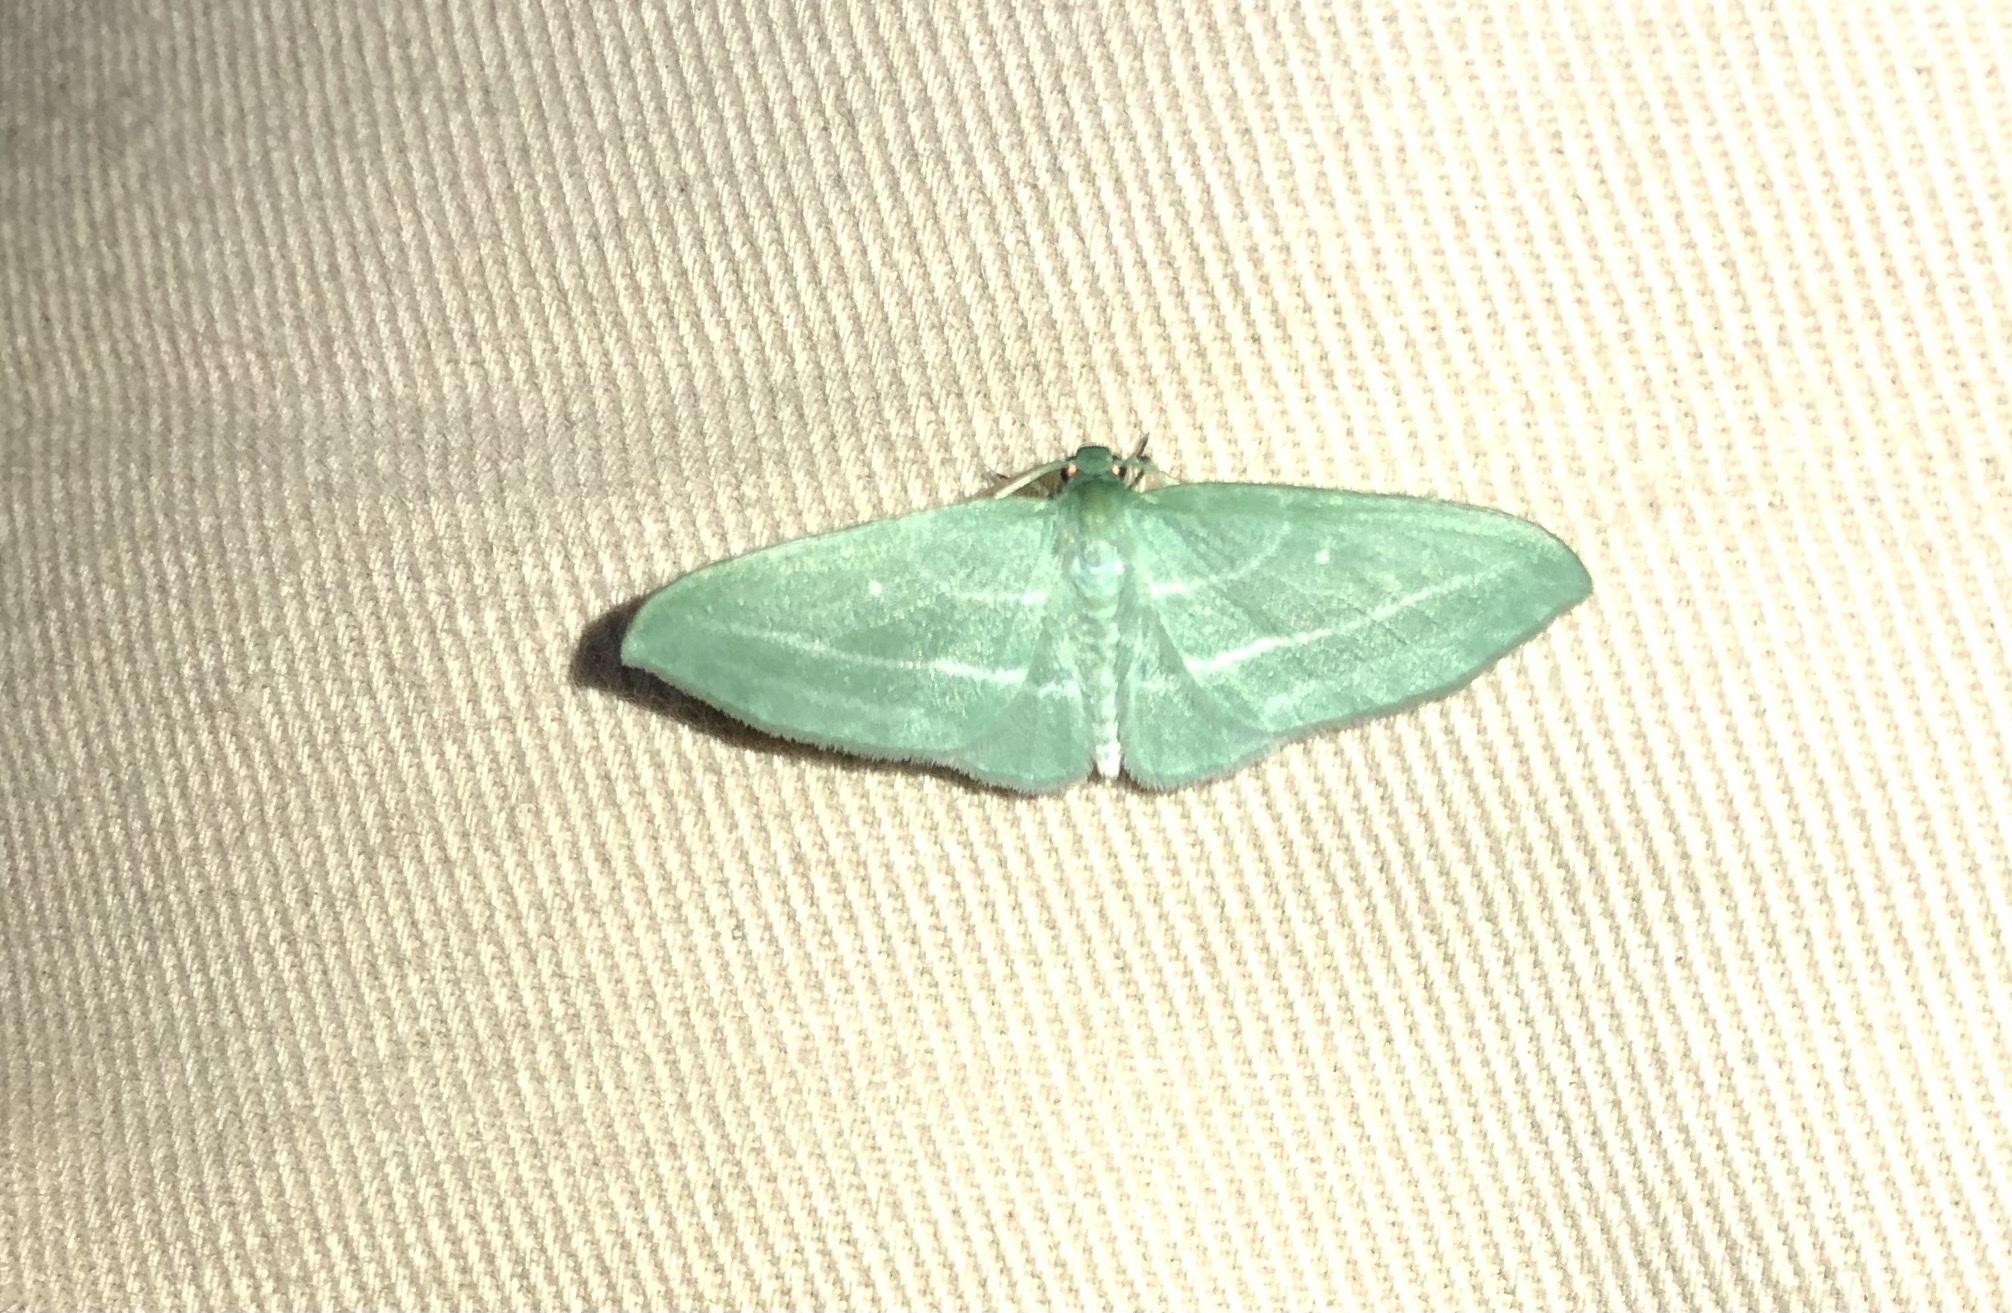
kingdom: Animalia
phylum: Arthropoda
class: Insecta
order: Lepidoptera
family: Geometridae
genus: Dyspteris
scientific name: Dyspteris abortivaria
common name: Bad-wing
